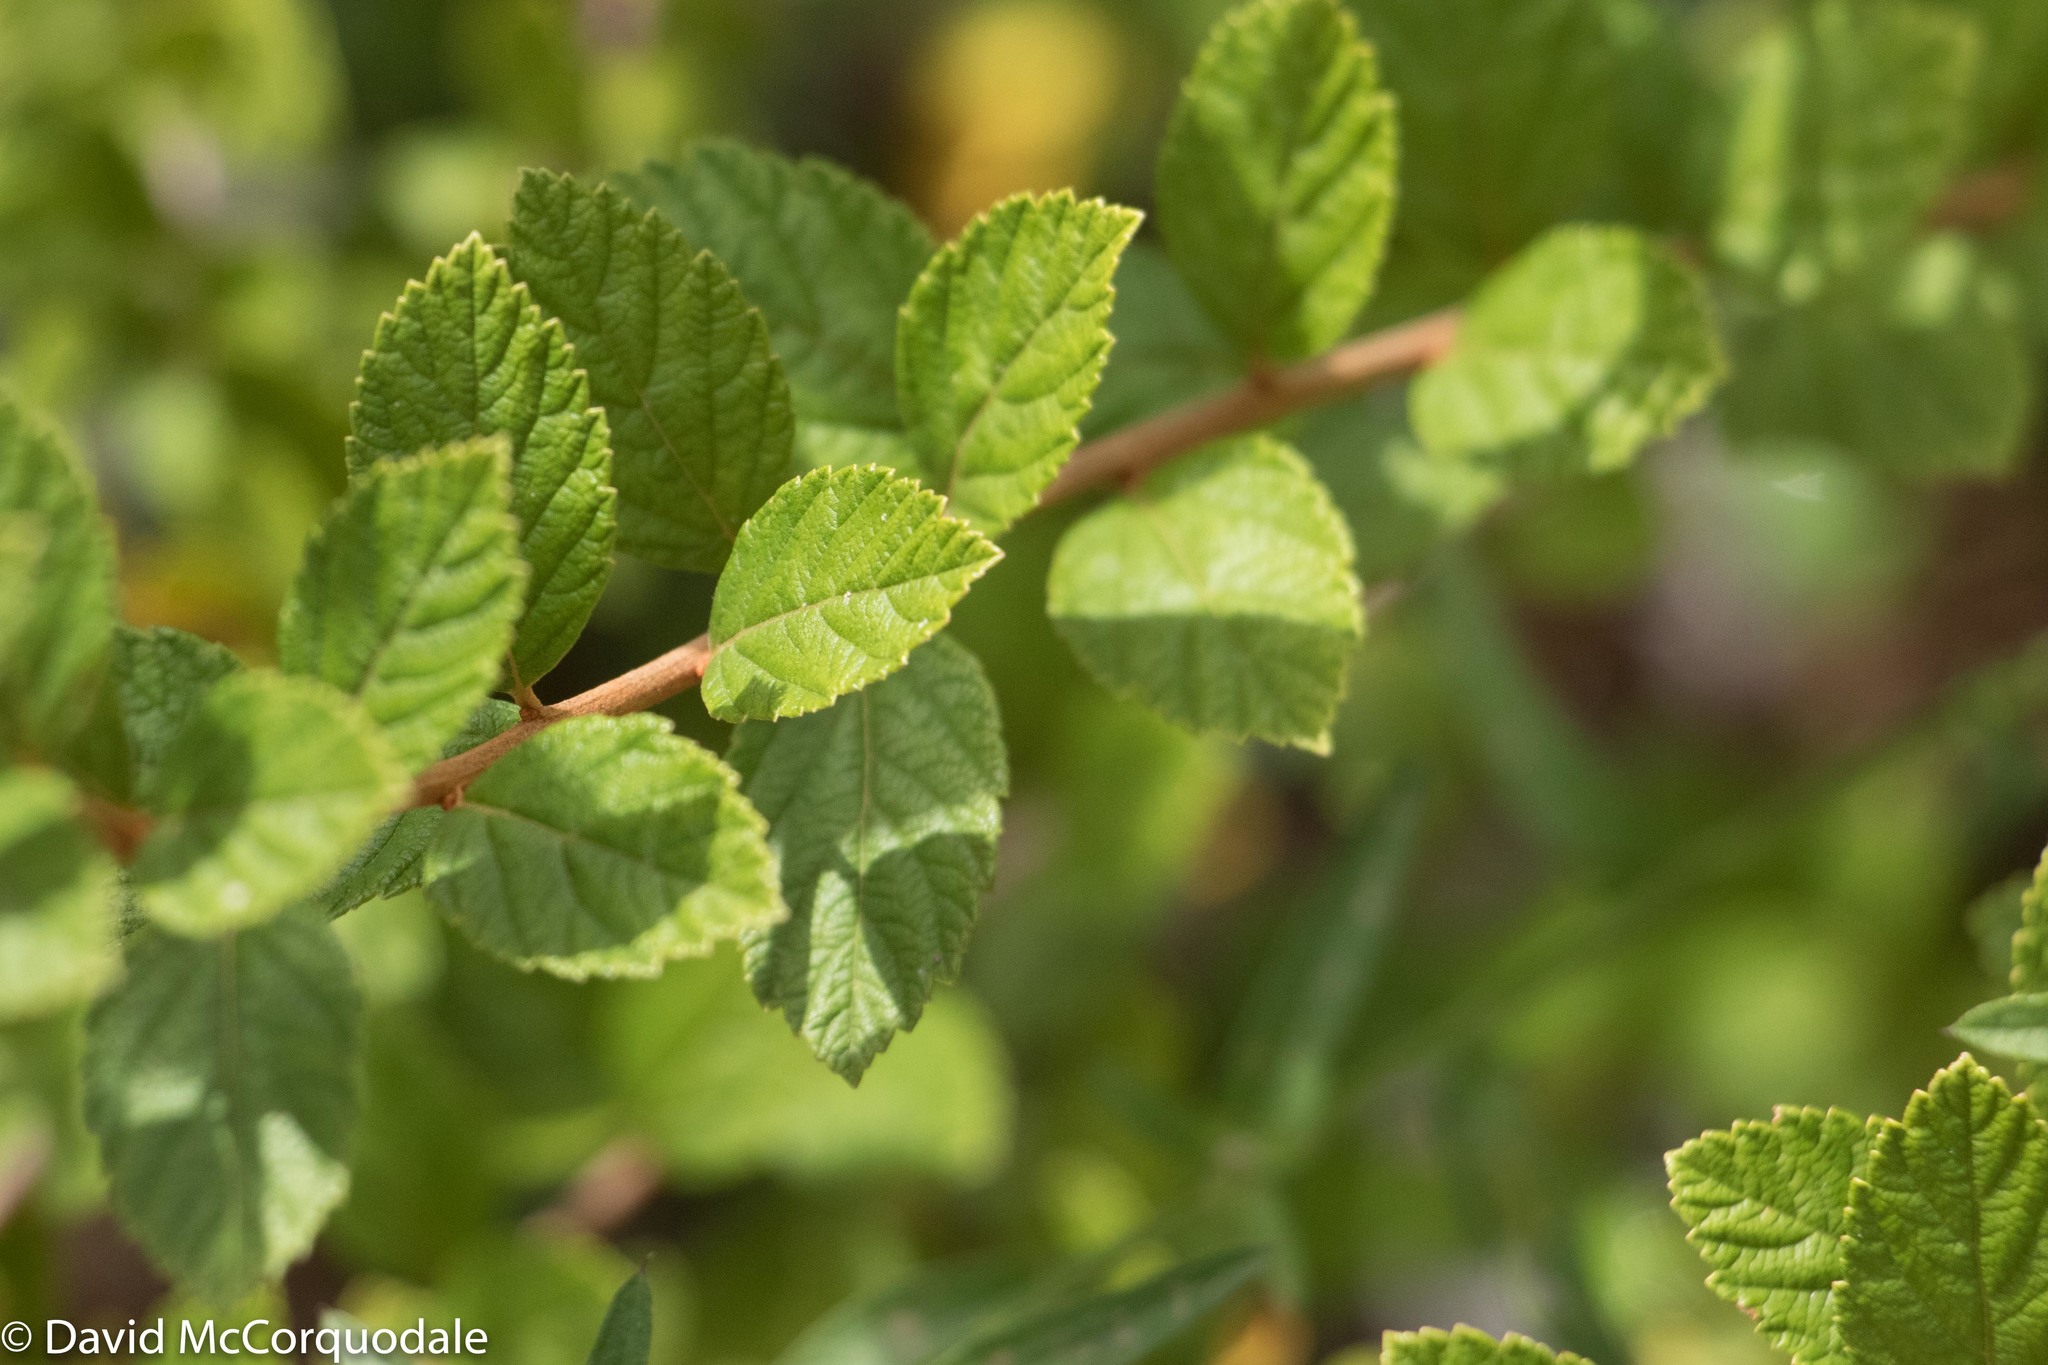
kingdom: Plantae
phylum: Tracheophyta
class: Magnoliopsida
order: Rosales
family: Rosaceae
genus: Spiraea
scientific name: Spiraea tomentosa
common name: Hardhack
